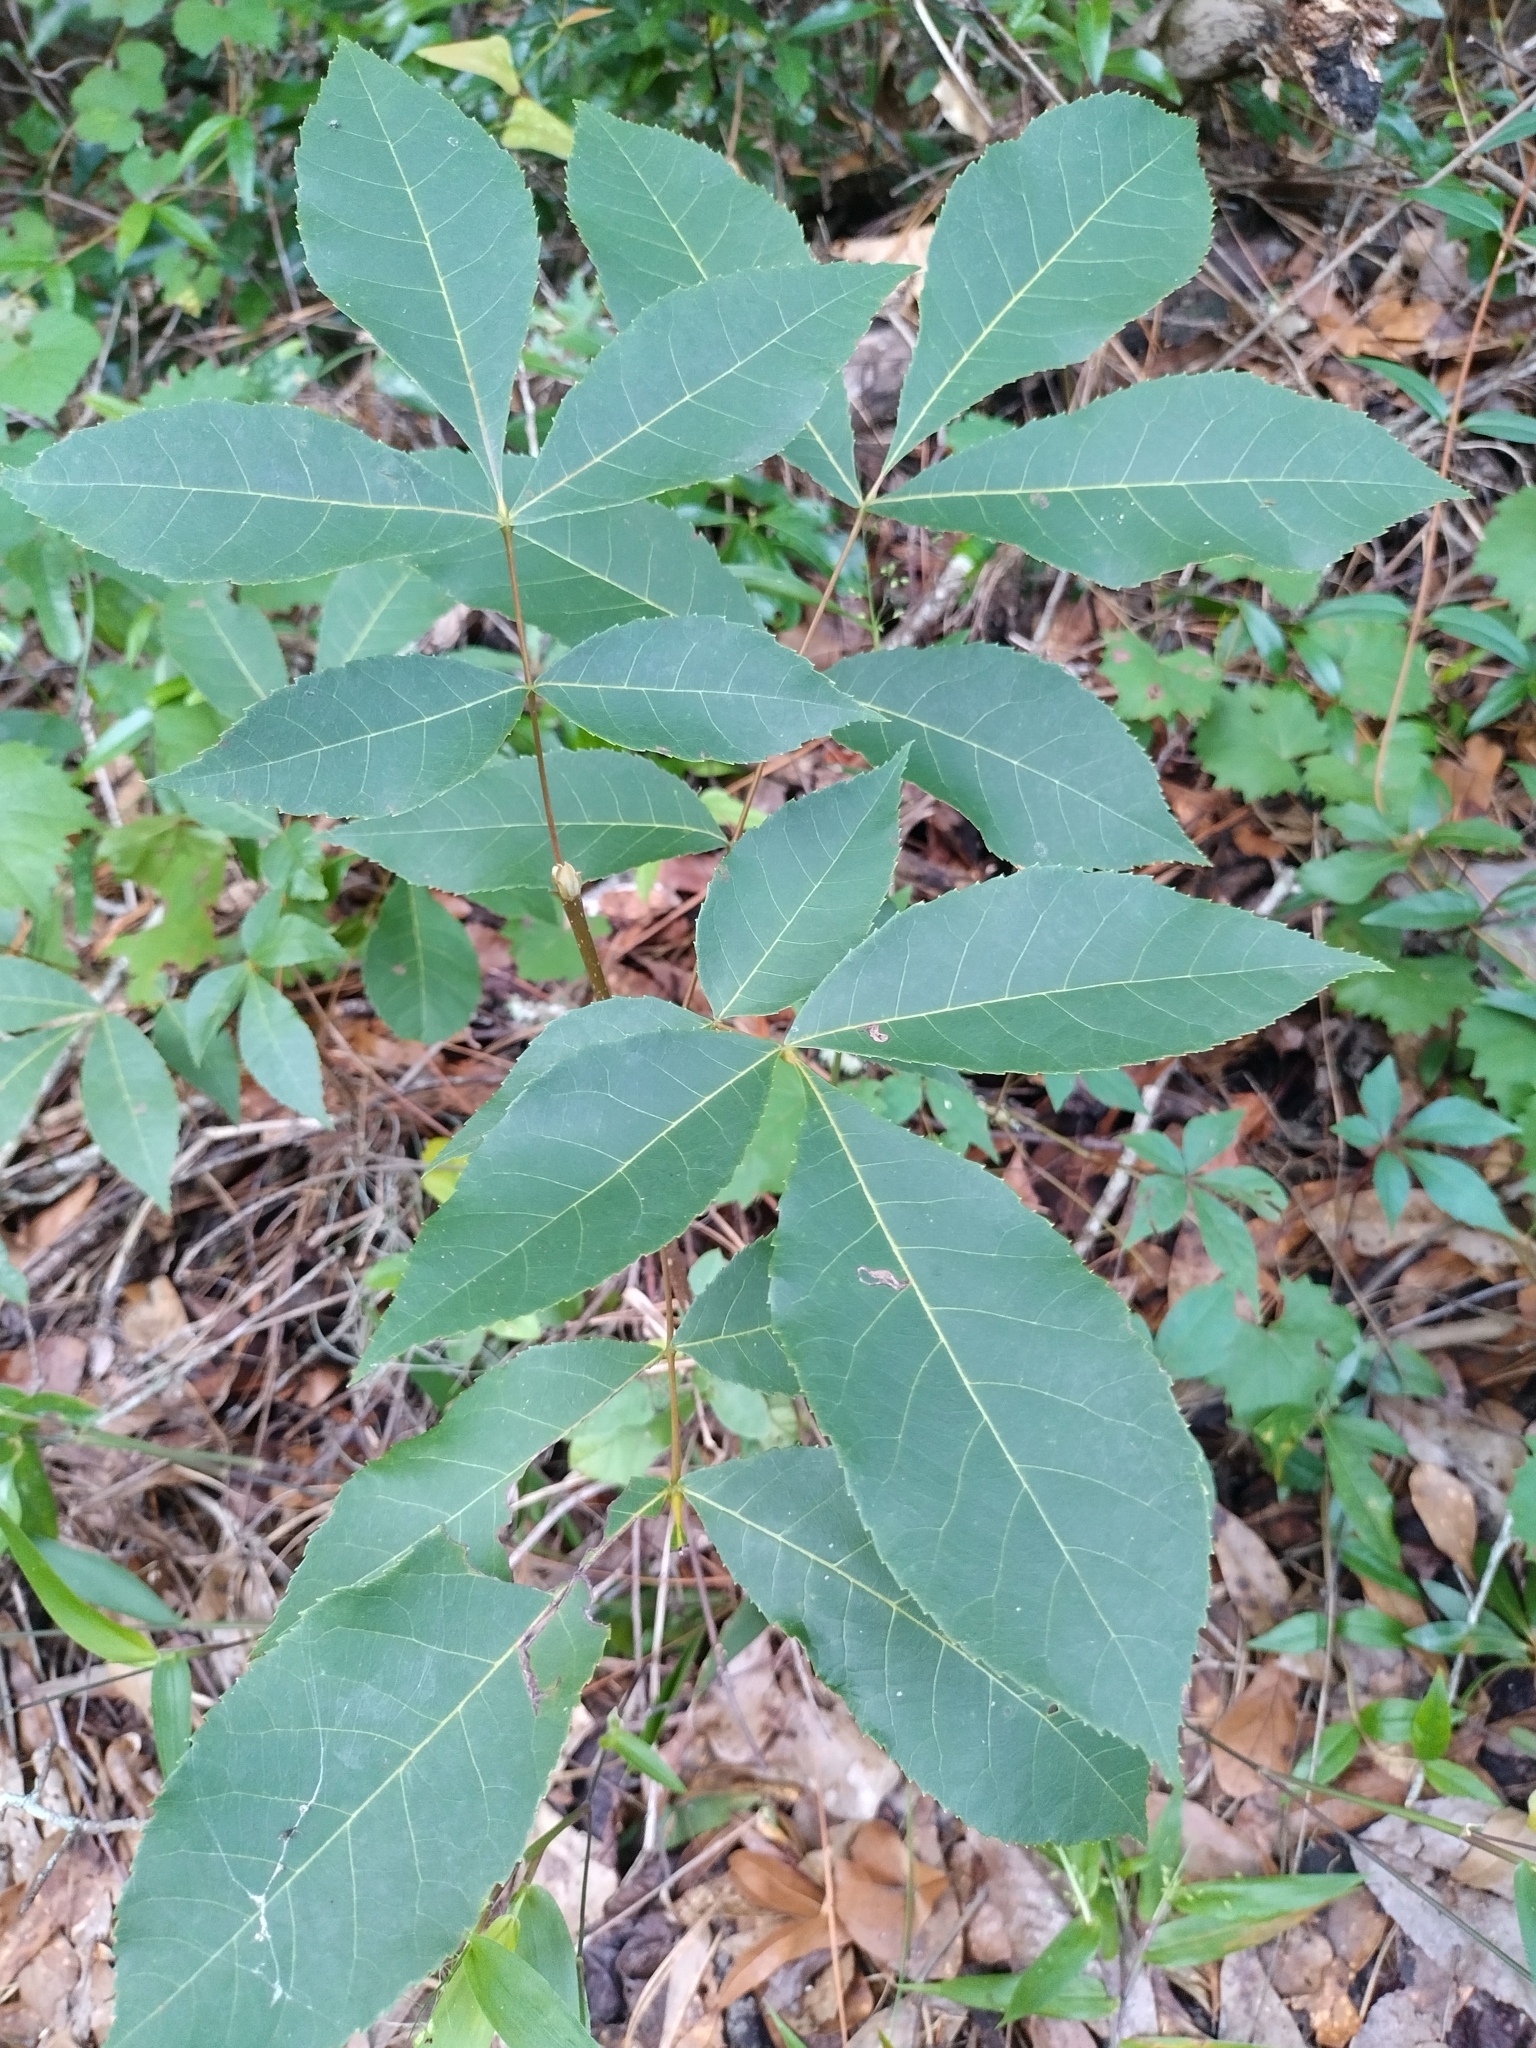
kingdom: Plantae
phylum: Tracheophyta
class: Magnoliopsida
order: Fagales
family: Juglandaceae
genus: Carya
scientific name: Carya glabra
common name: Pignut hickory
